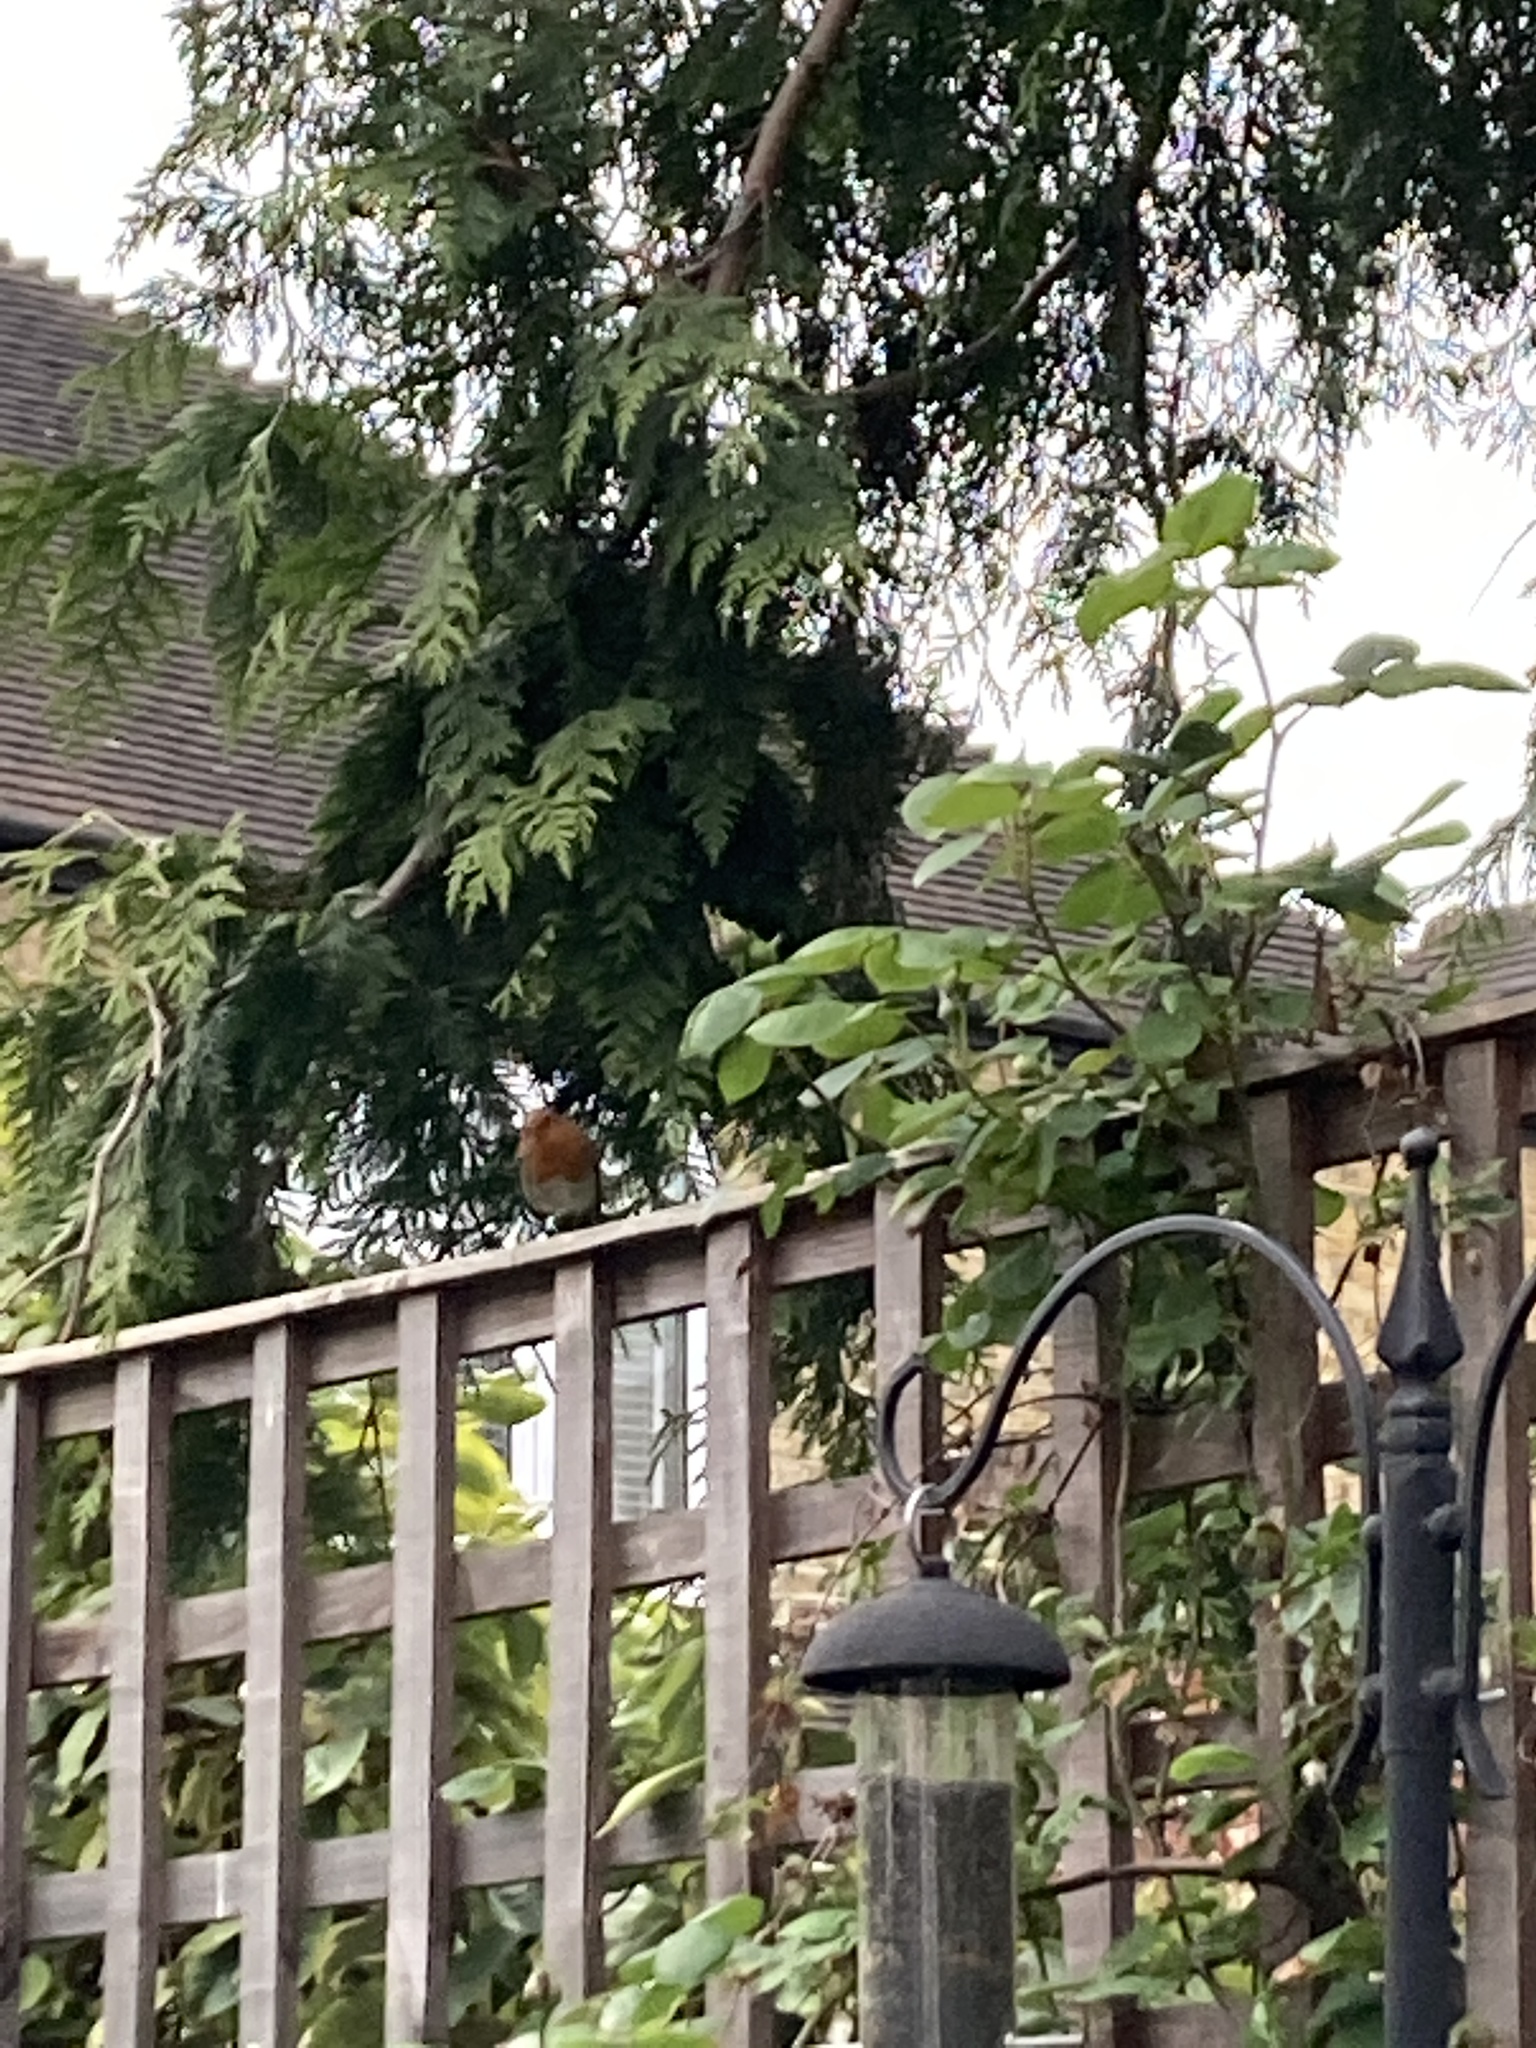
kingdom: Animalia
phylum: Chordata
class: Aves
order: Passeriformes
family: Muscicapidae
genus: Erithacus
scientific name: Erithacus rubecula
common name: European robin
